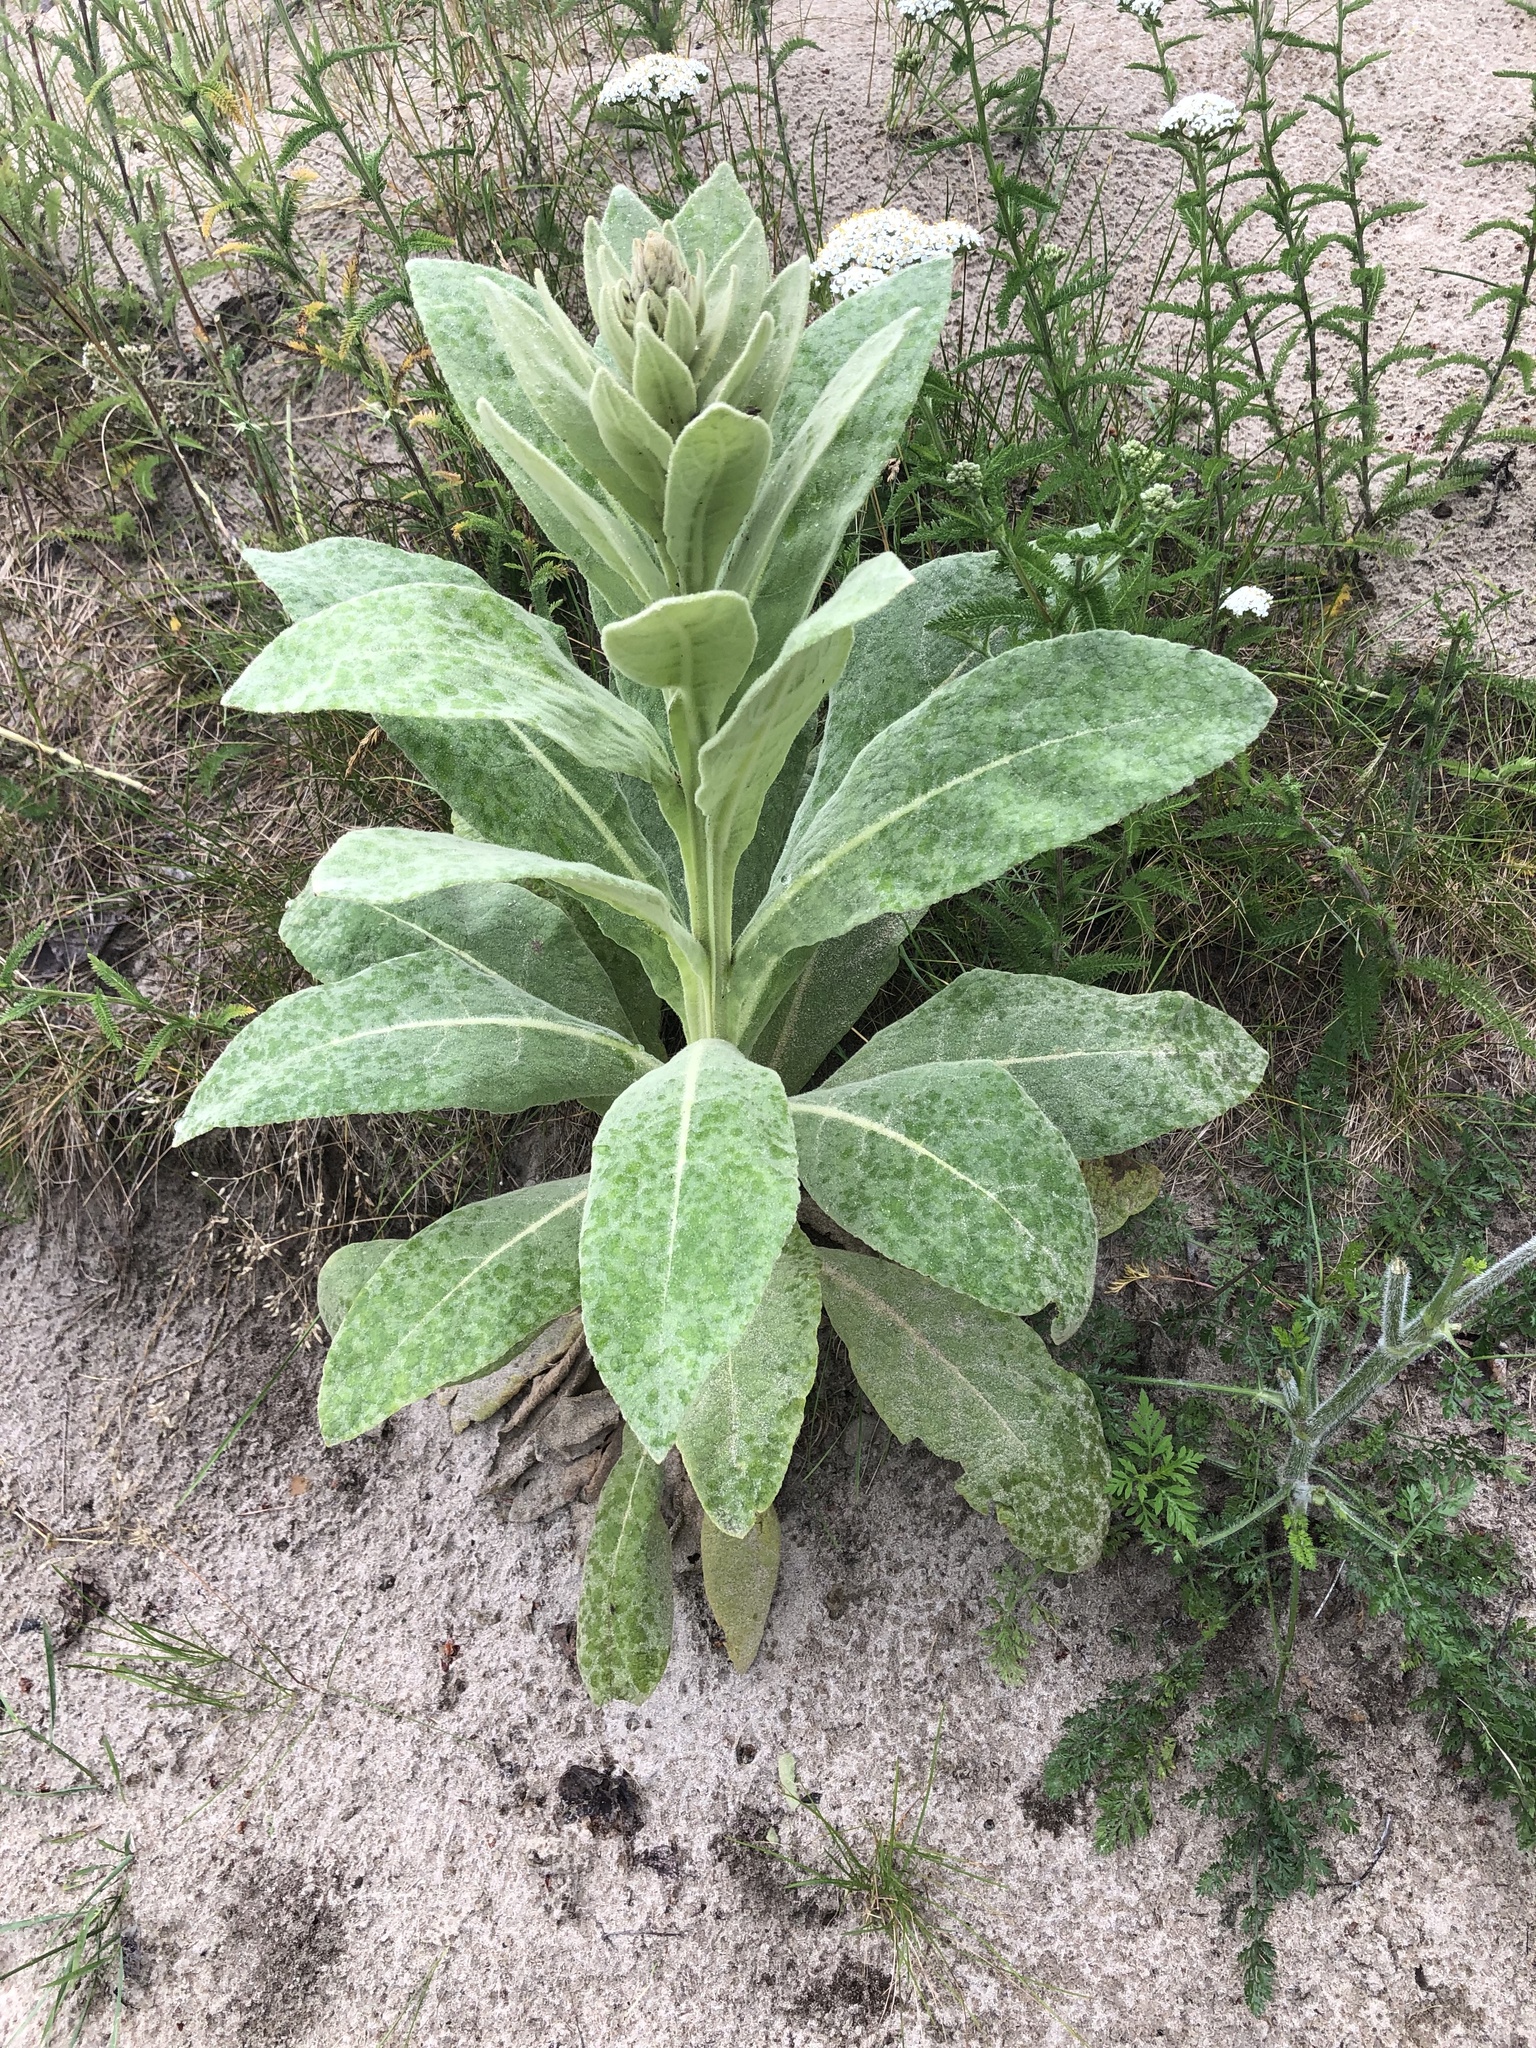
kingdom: Plantae
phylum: Tracheophyta
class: Magnoliopsida
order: Lamiales
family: Scrophulariaceae
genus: Verbascum
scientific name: Verbascum thapsus
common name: Common mullein
